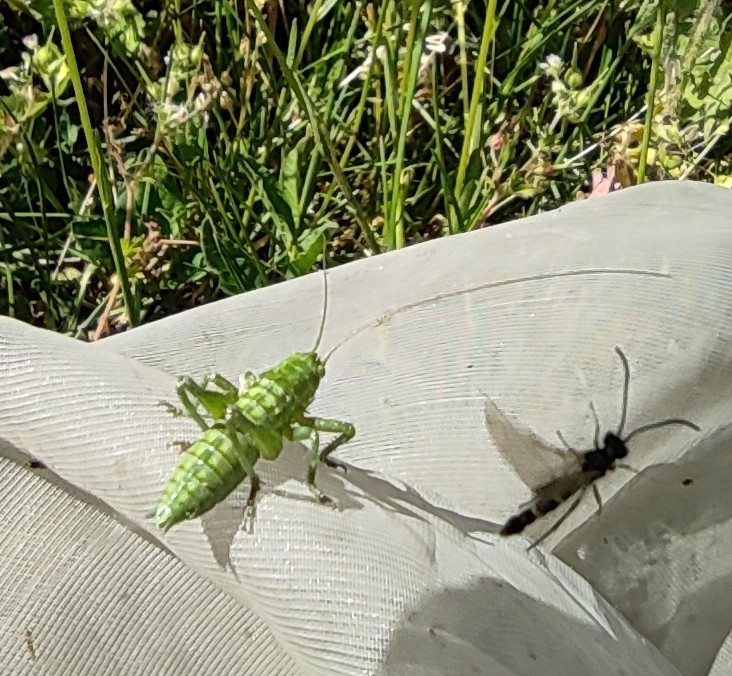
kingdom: Animalia
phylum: Arthropoda
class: Insecta
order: Orthoptera
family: Tettigoniidae
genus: Tettigonia
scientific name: Tettigonia viridissima
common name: Great green bush-cricket
